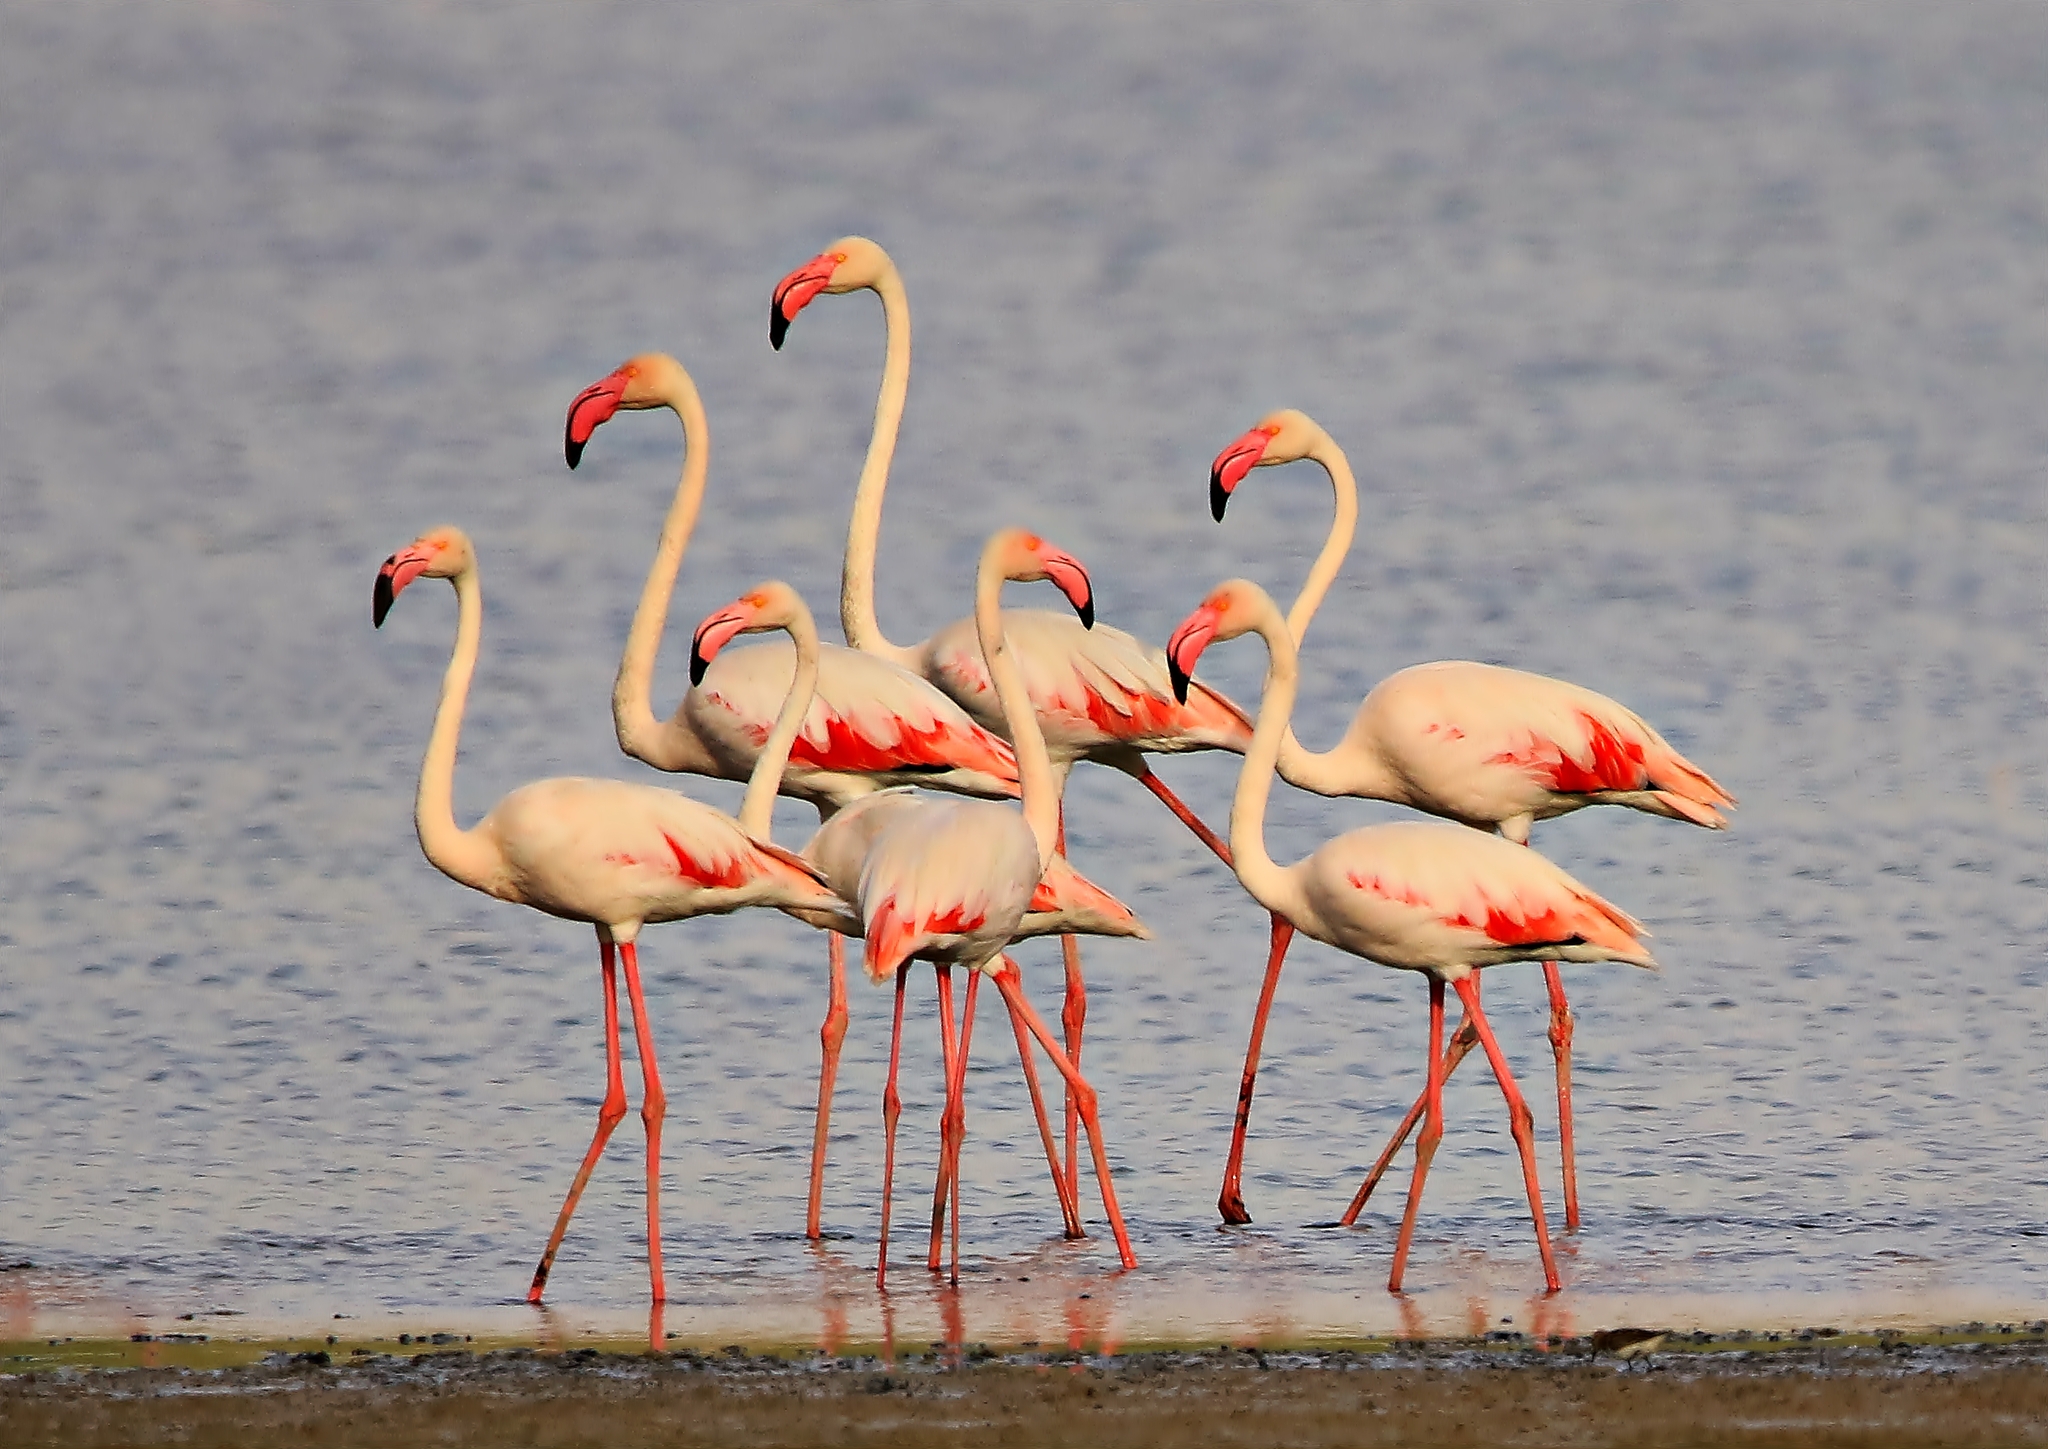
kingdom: Animalia
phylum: Chordata
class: Aves
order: Phoenicopteriformes
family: Phoenicopteridae
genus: Phoenicopterus
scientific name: Phoenicopterus roseus
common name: Greater flamingo
